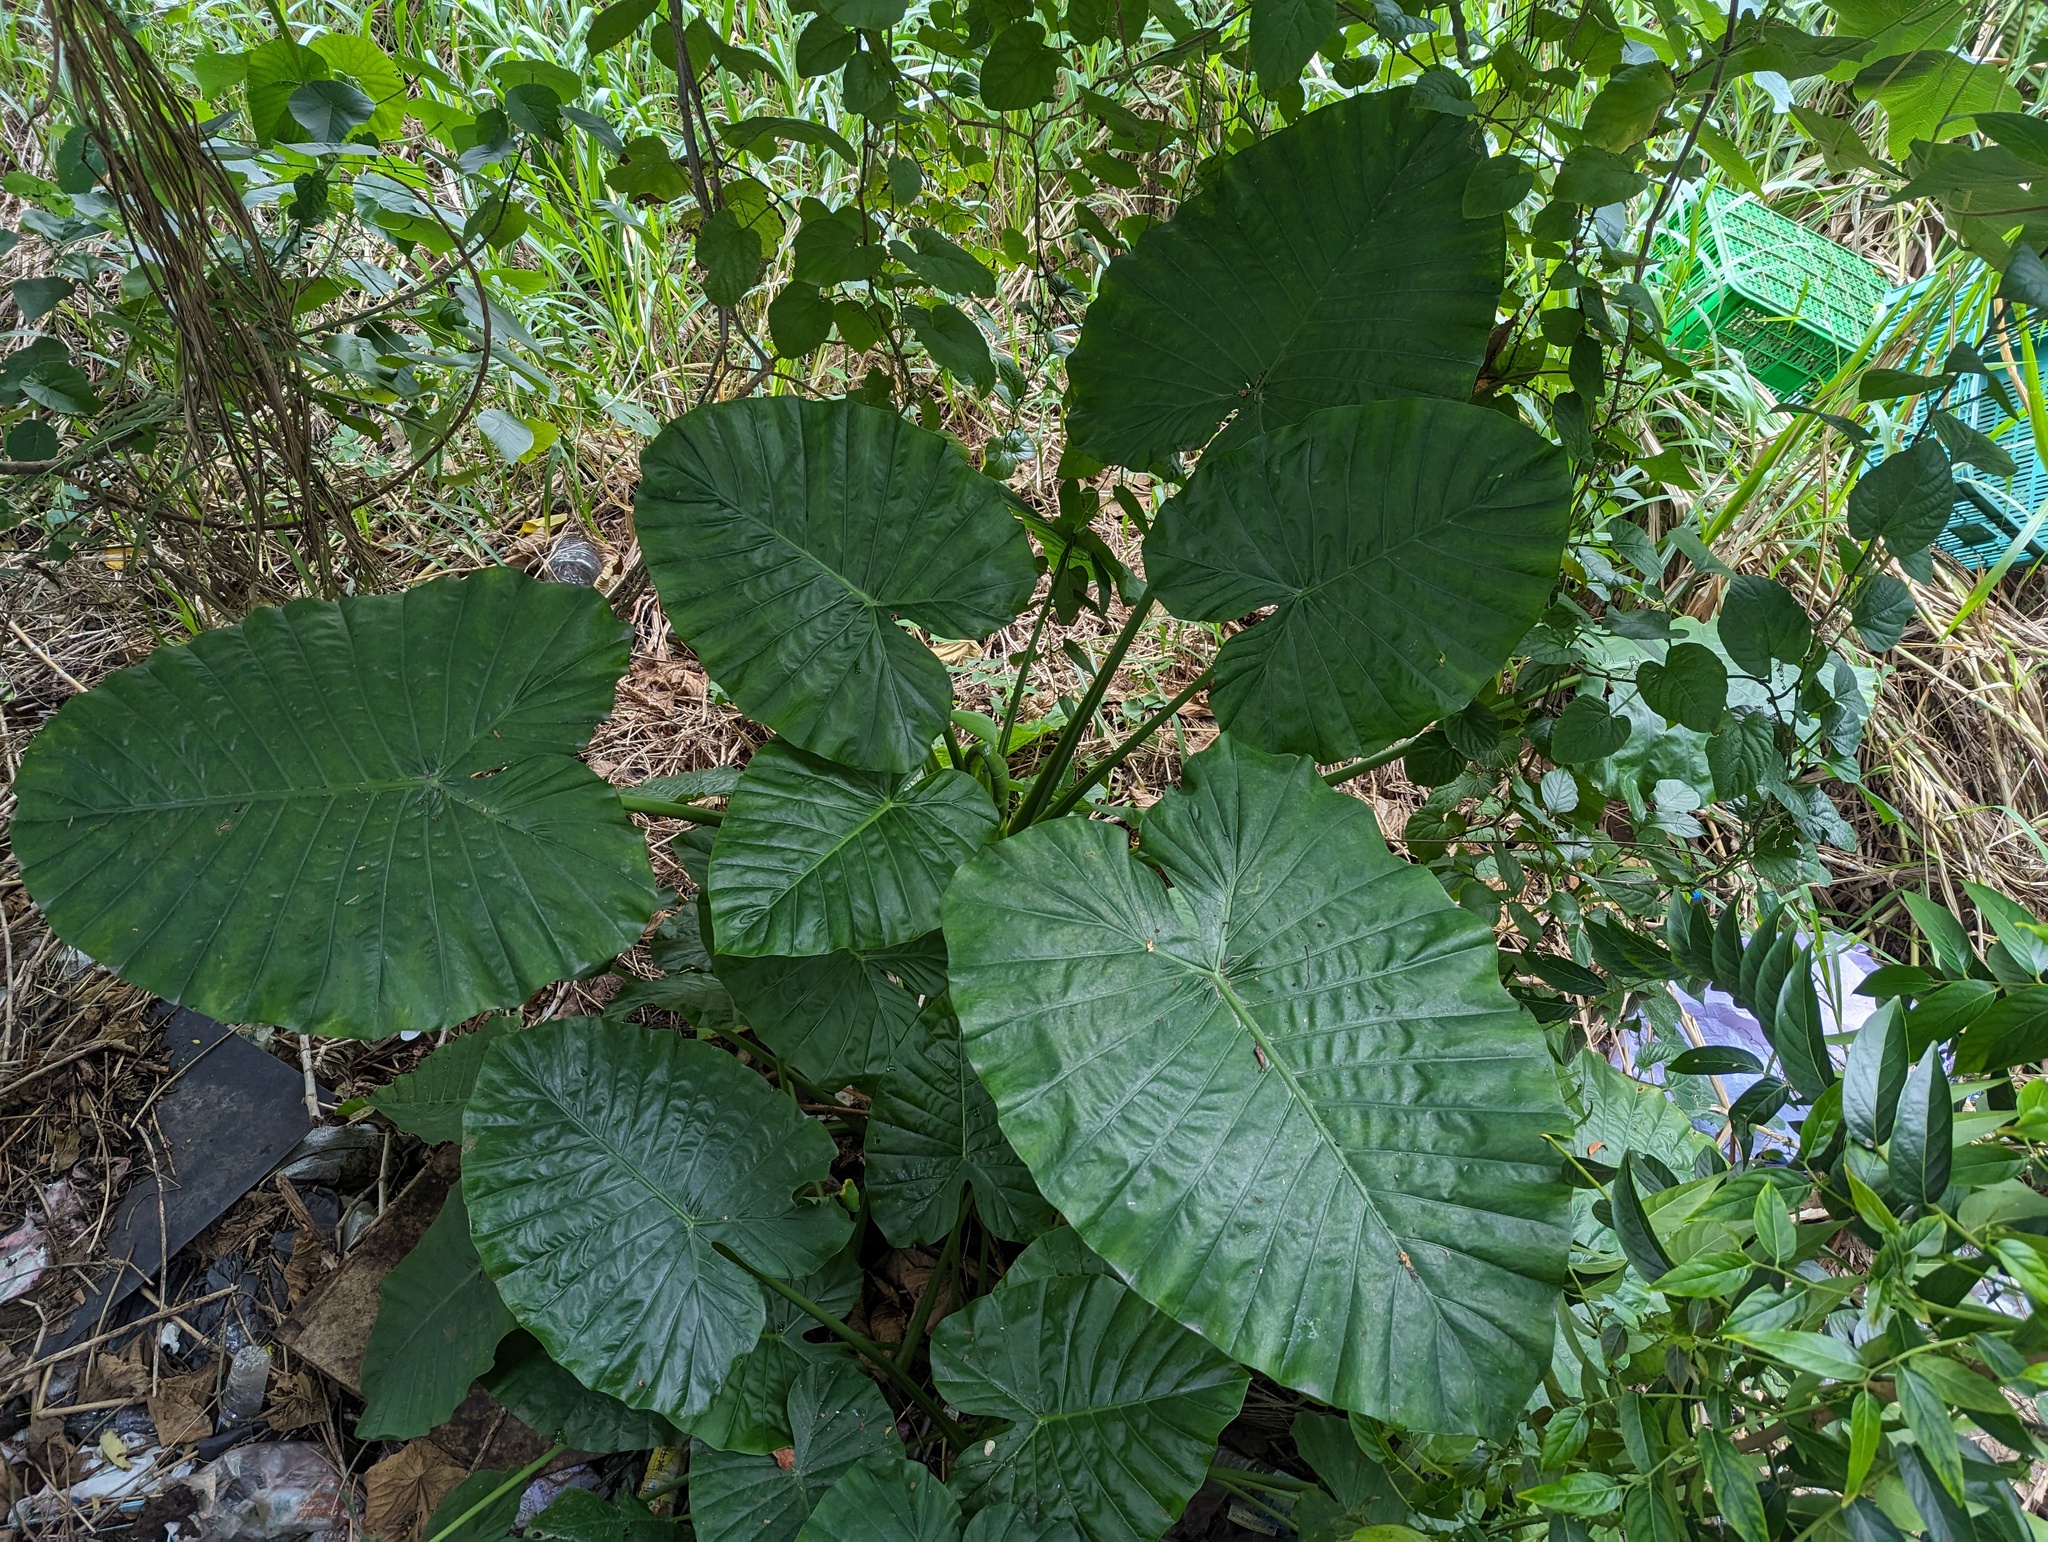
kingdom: Plantae
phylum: Tracheophyta
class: Liliopsida
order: Alismatales
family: Araceae
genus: Alocasia
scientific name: Alocasia odora
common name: Asian taro
